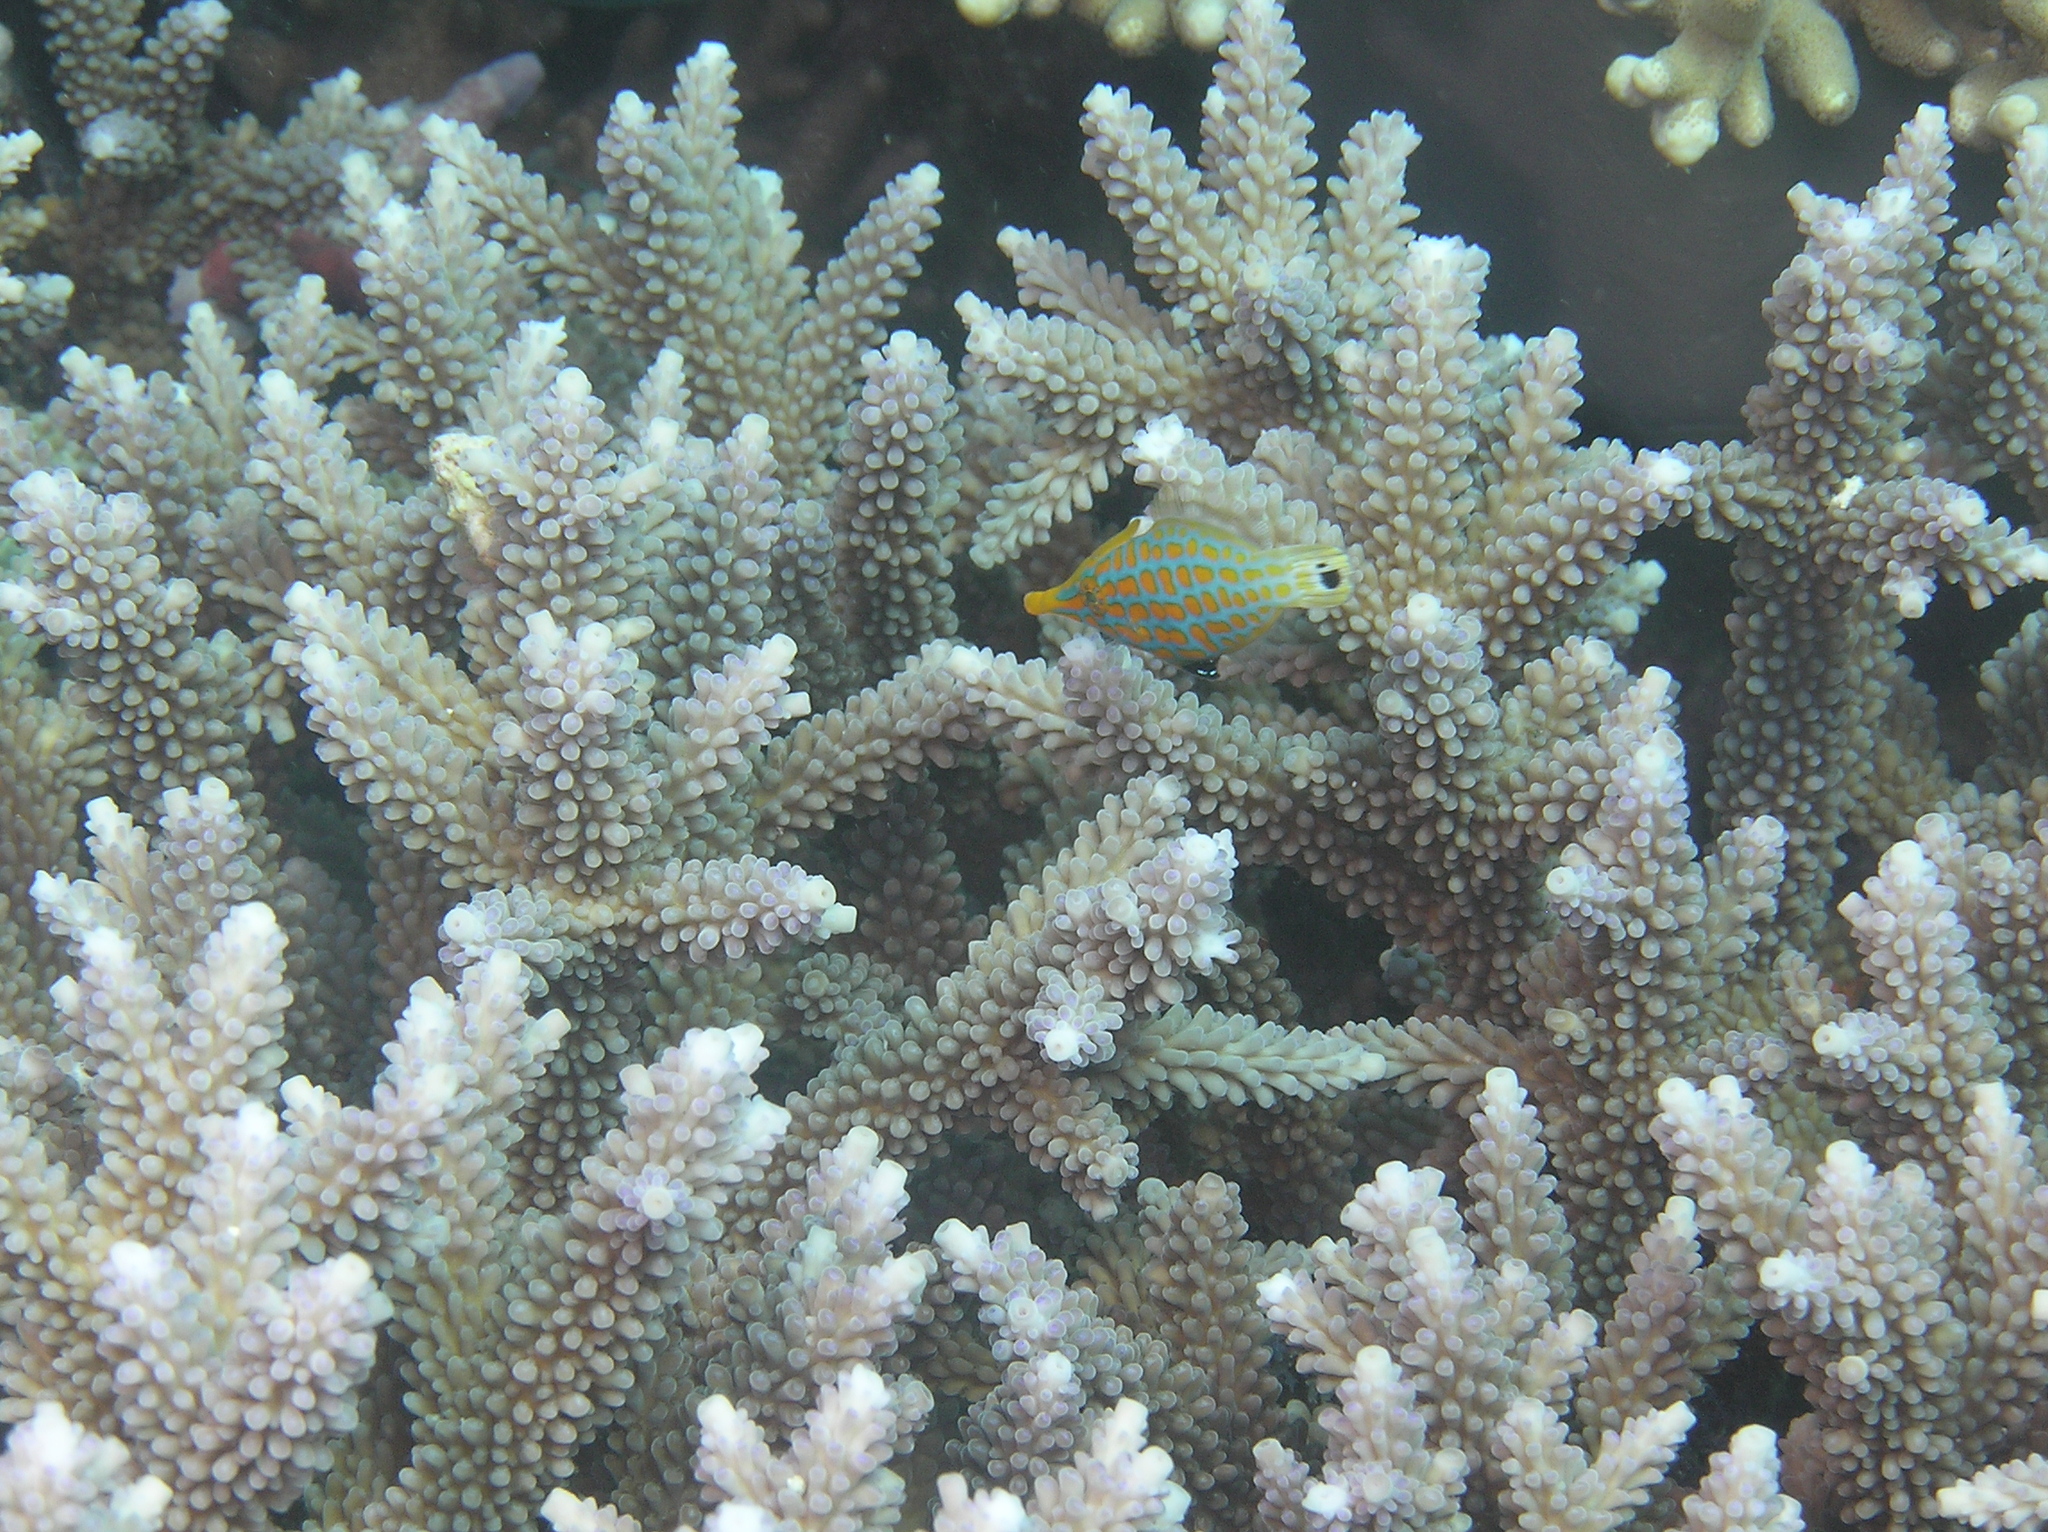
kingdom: Animalia
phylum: Chordata
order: Tetraodontiformes
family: Monacanthidae
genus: Oxymonacanthus
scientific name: Oxymonacanthus longirostris
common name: Beaked leatherjacket
